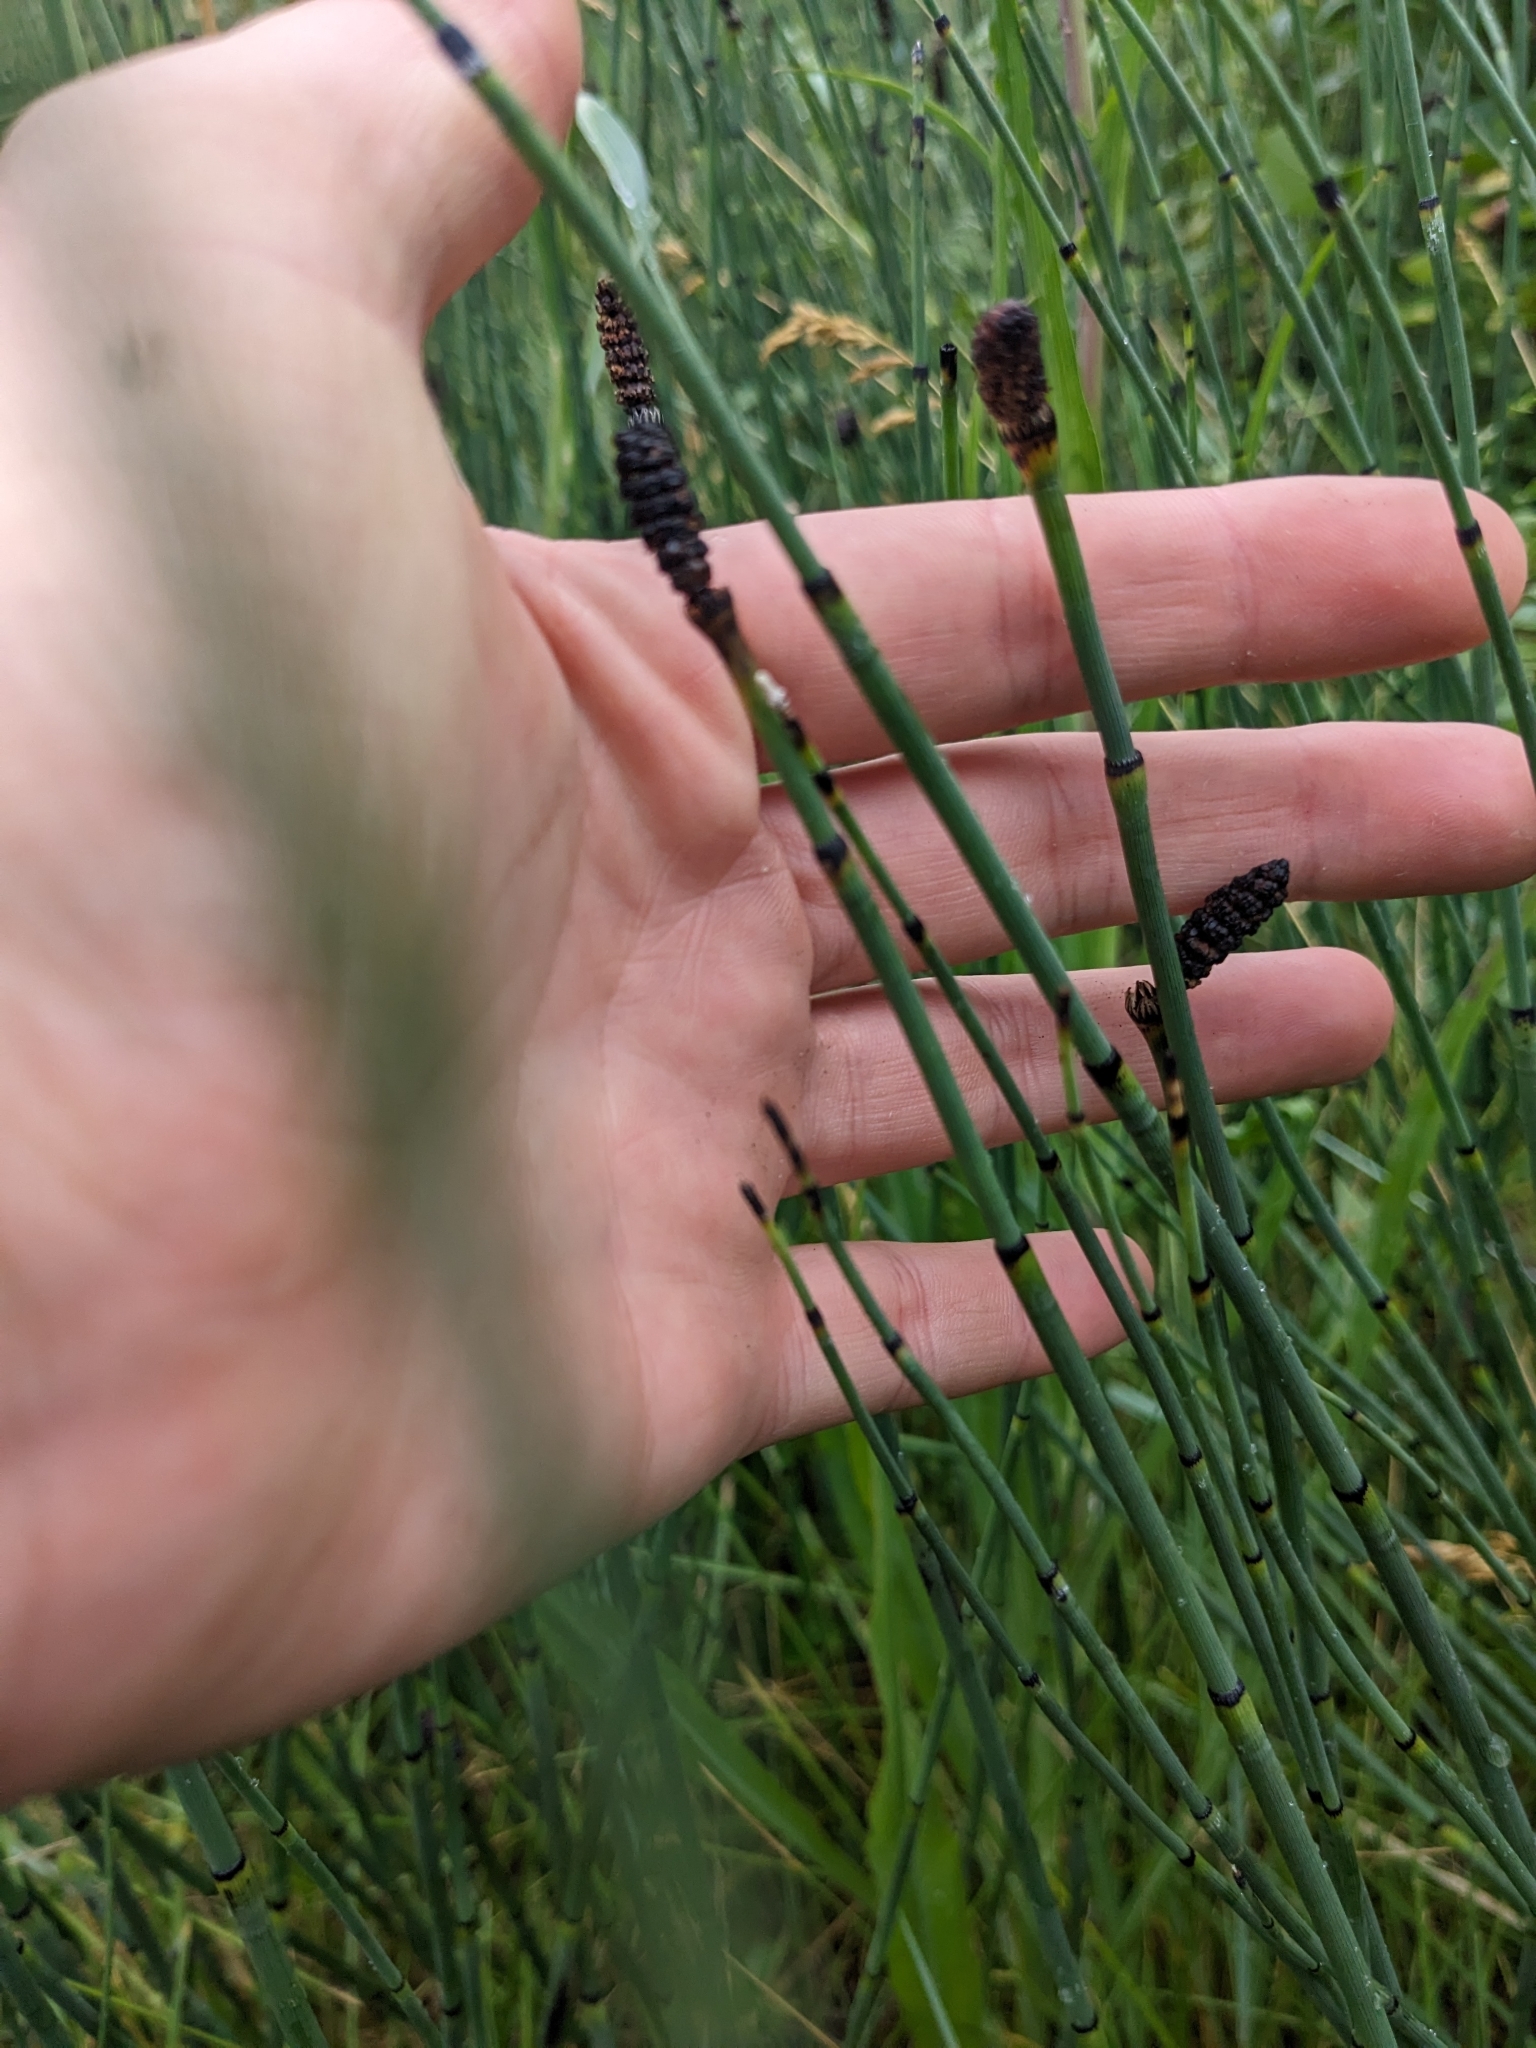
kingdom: Plantae
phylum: Tracheophyta
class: Polypodiopsida
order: Equisetales
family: Equisetaceae
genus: Equisetum
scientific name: Equisetum laevigatum
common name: Smooth scouring-rush
